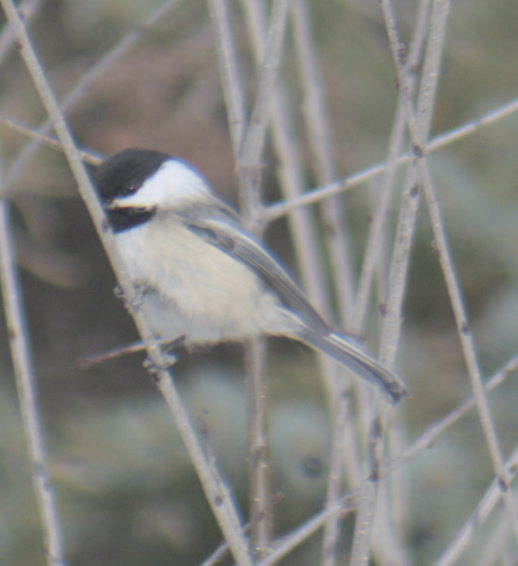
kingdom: Animalia
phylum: Chordata
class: Aves
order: Passeriformes
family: Paridae
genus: Poecile
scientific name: Poecile atricapillus
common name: Black-capped chickadee
